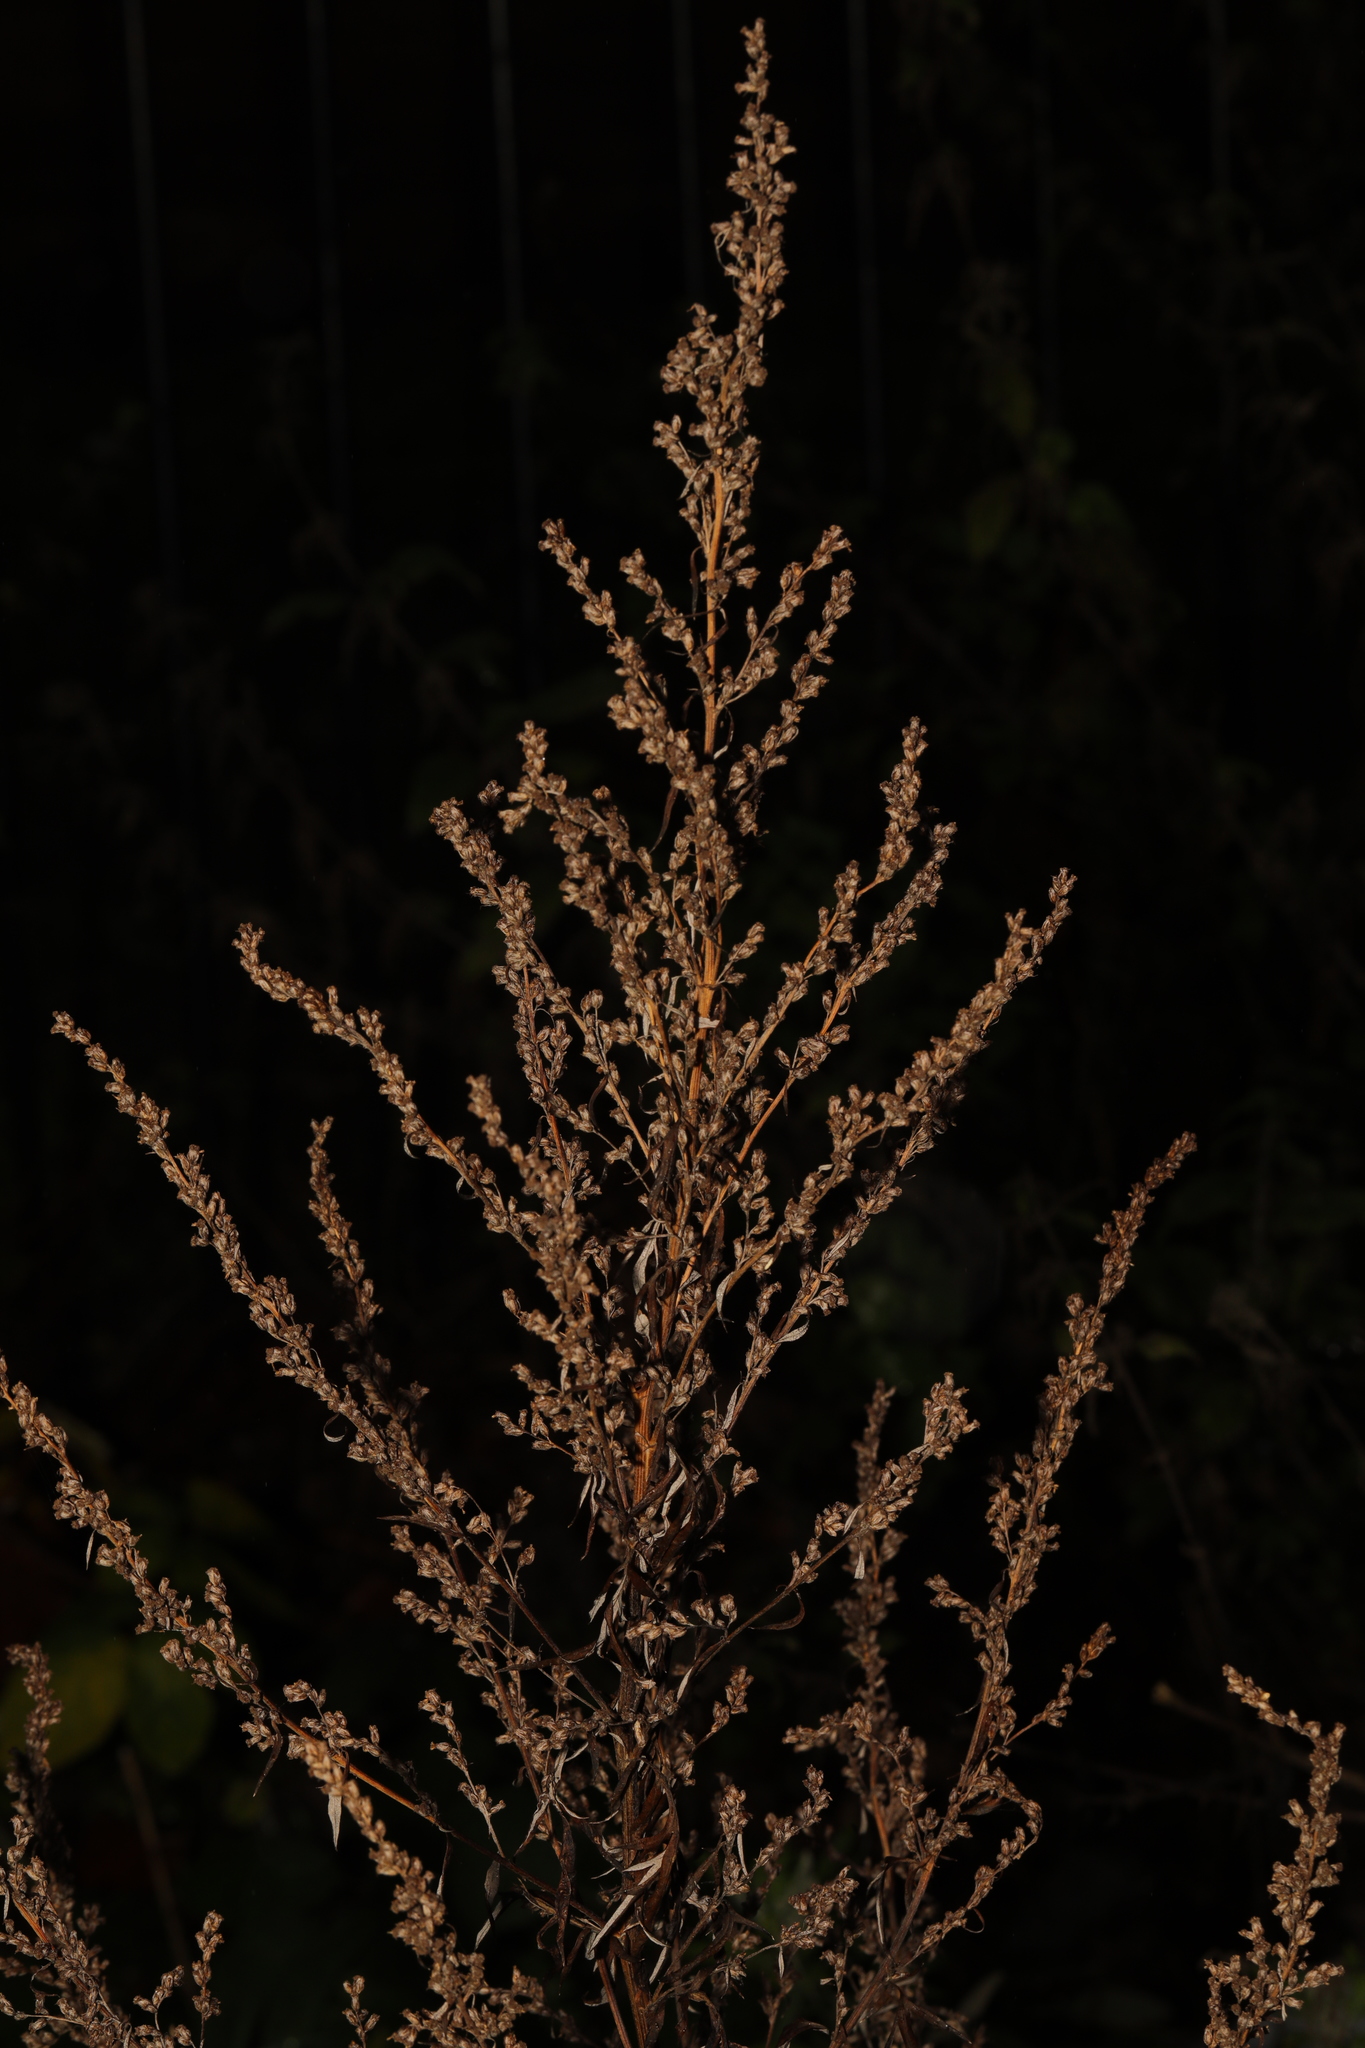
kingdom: Plantae
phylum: Tracheophyta
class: Magnoliopsida
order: Asterales
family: Asteraceae
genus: Artemisia
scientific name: Artemisia vulgaris
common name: Mugwort
